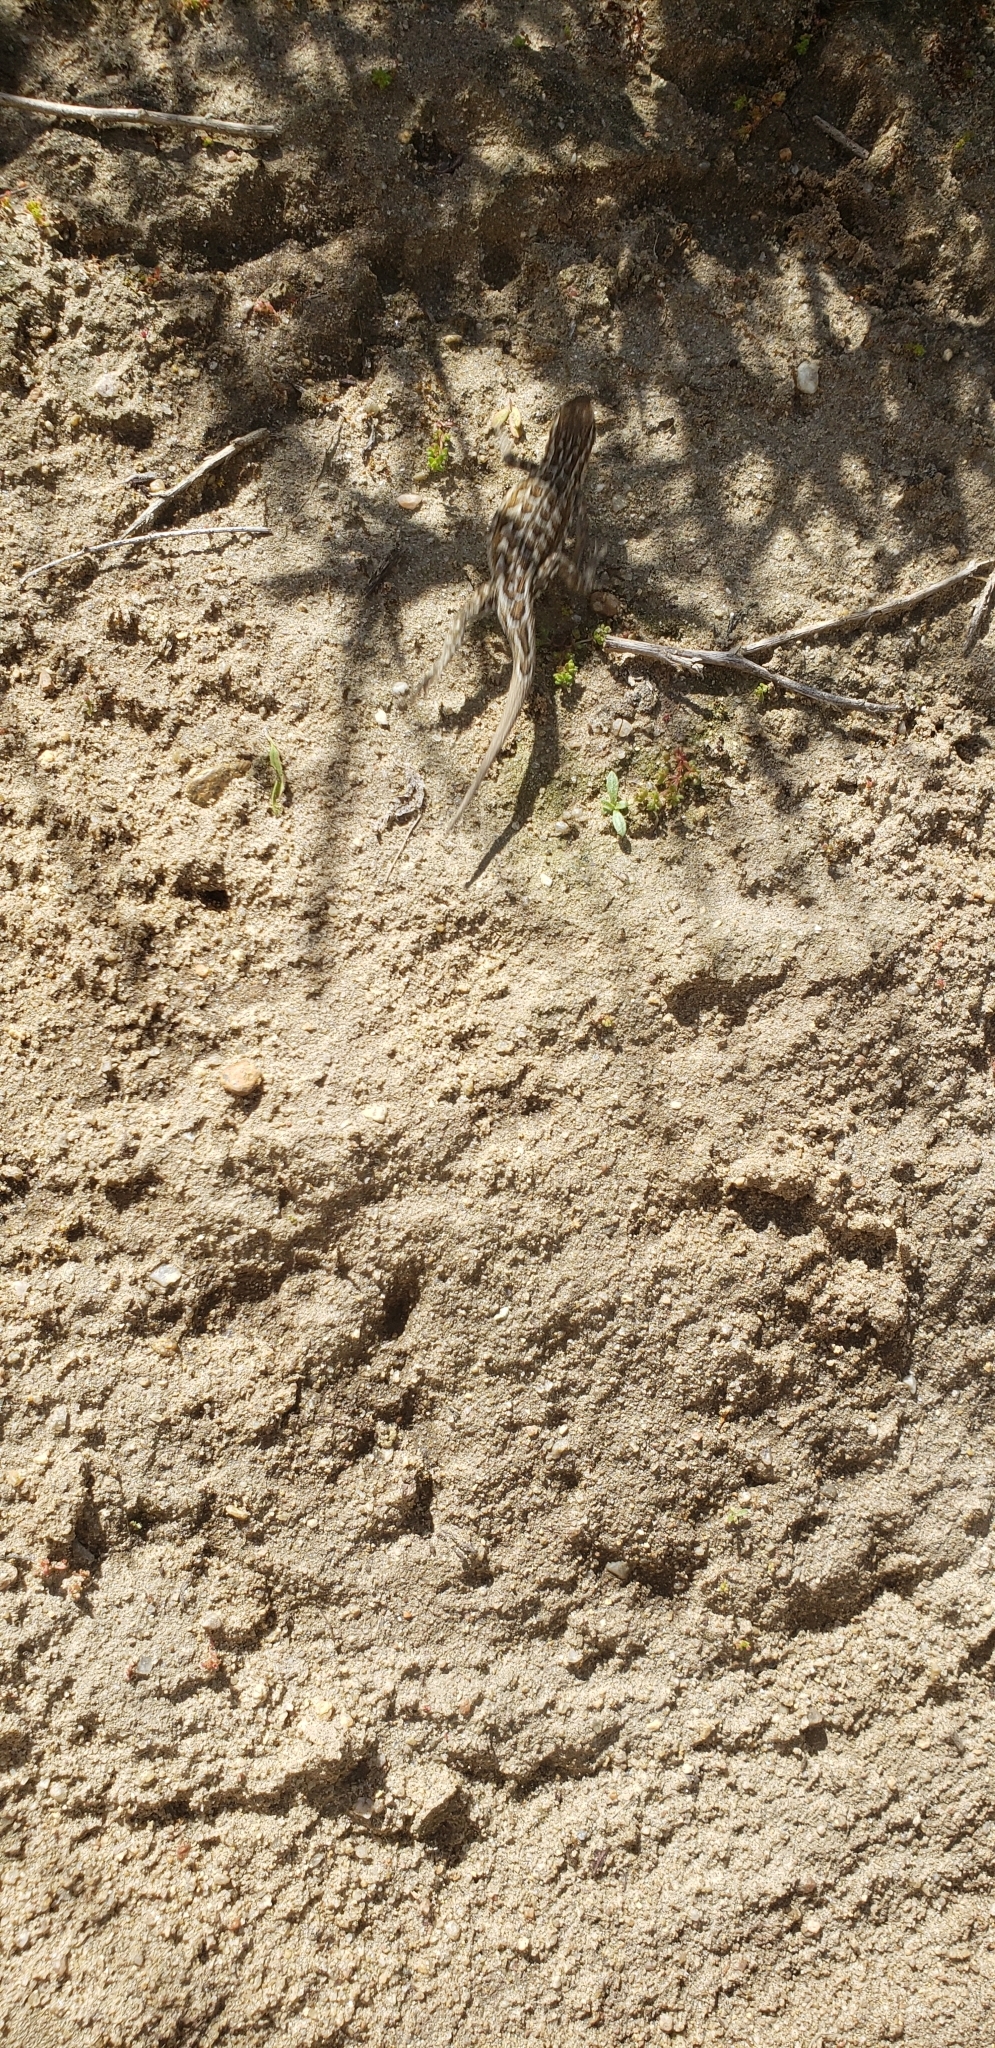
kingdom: Animalia
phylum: Chordata
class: Squamata
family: Phrynosomatidae
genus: Uta
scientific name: Uta stansburiana
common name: Side-blotched lizard
